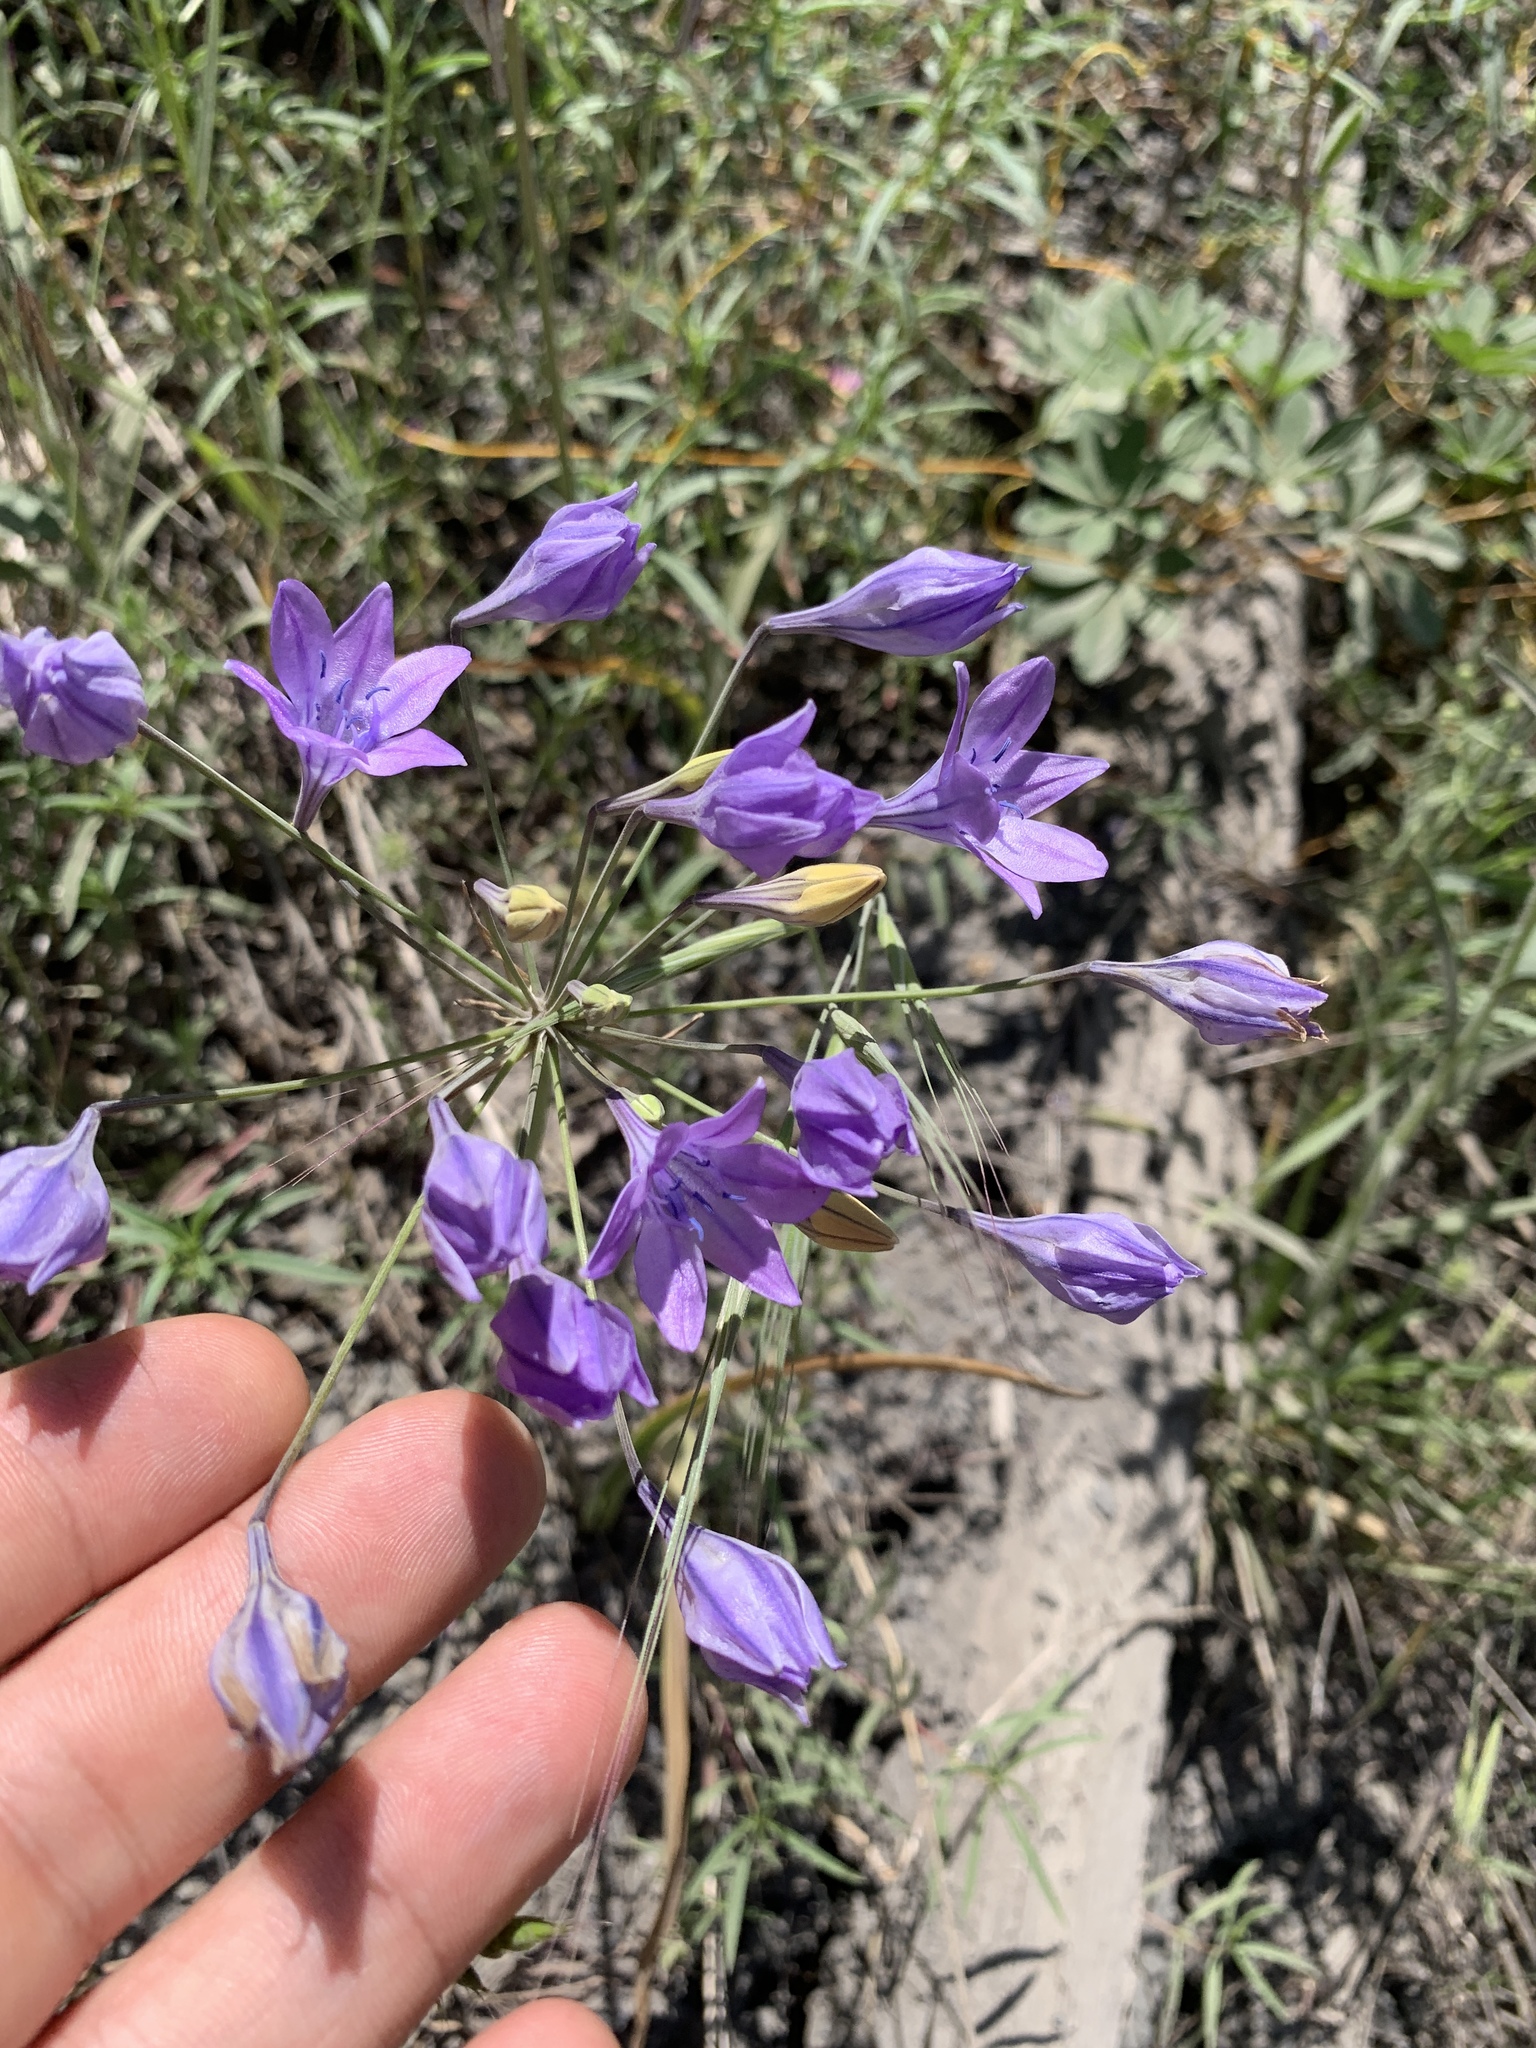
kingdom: Plantae
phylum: Tracheophyta
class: Liliopsida
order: Asparagales
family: Asparagaceae
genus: Triteleia
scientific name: Triteleia laxa
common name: Triplet-lily
